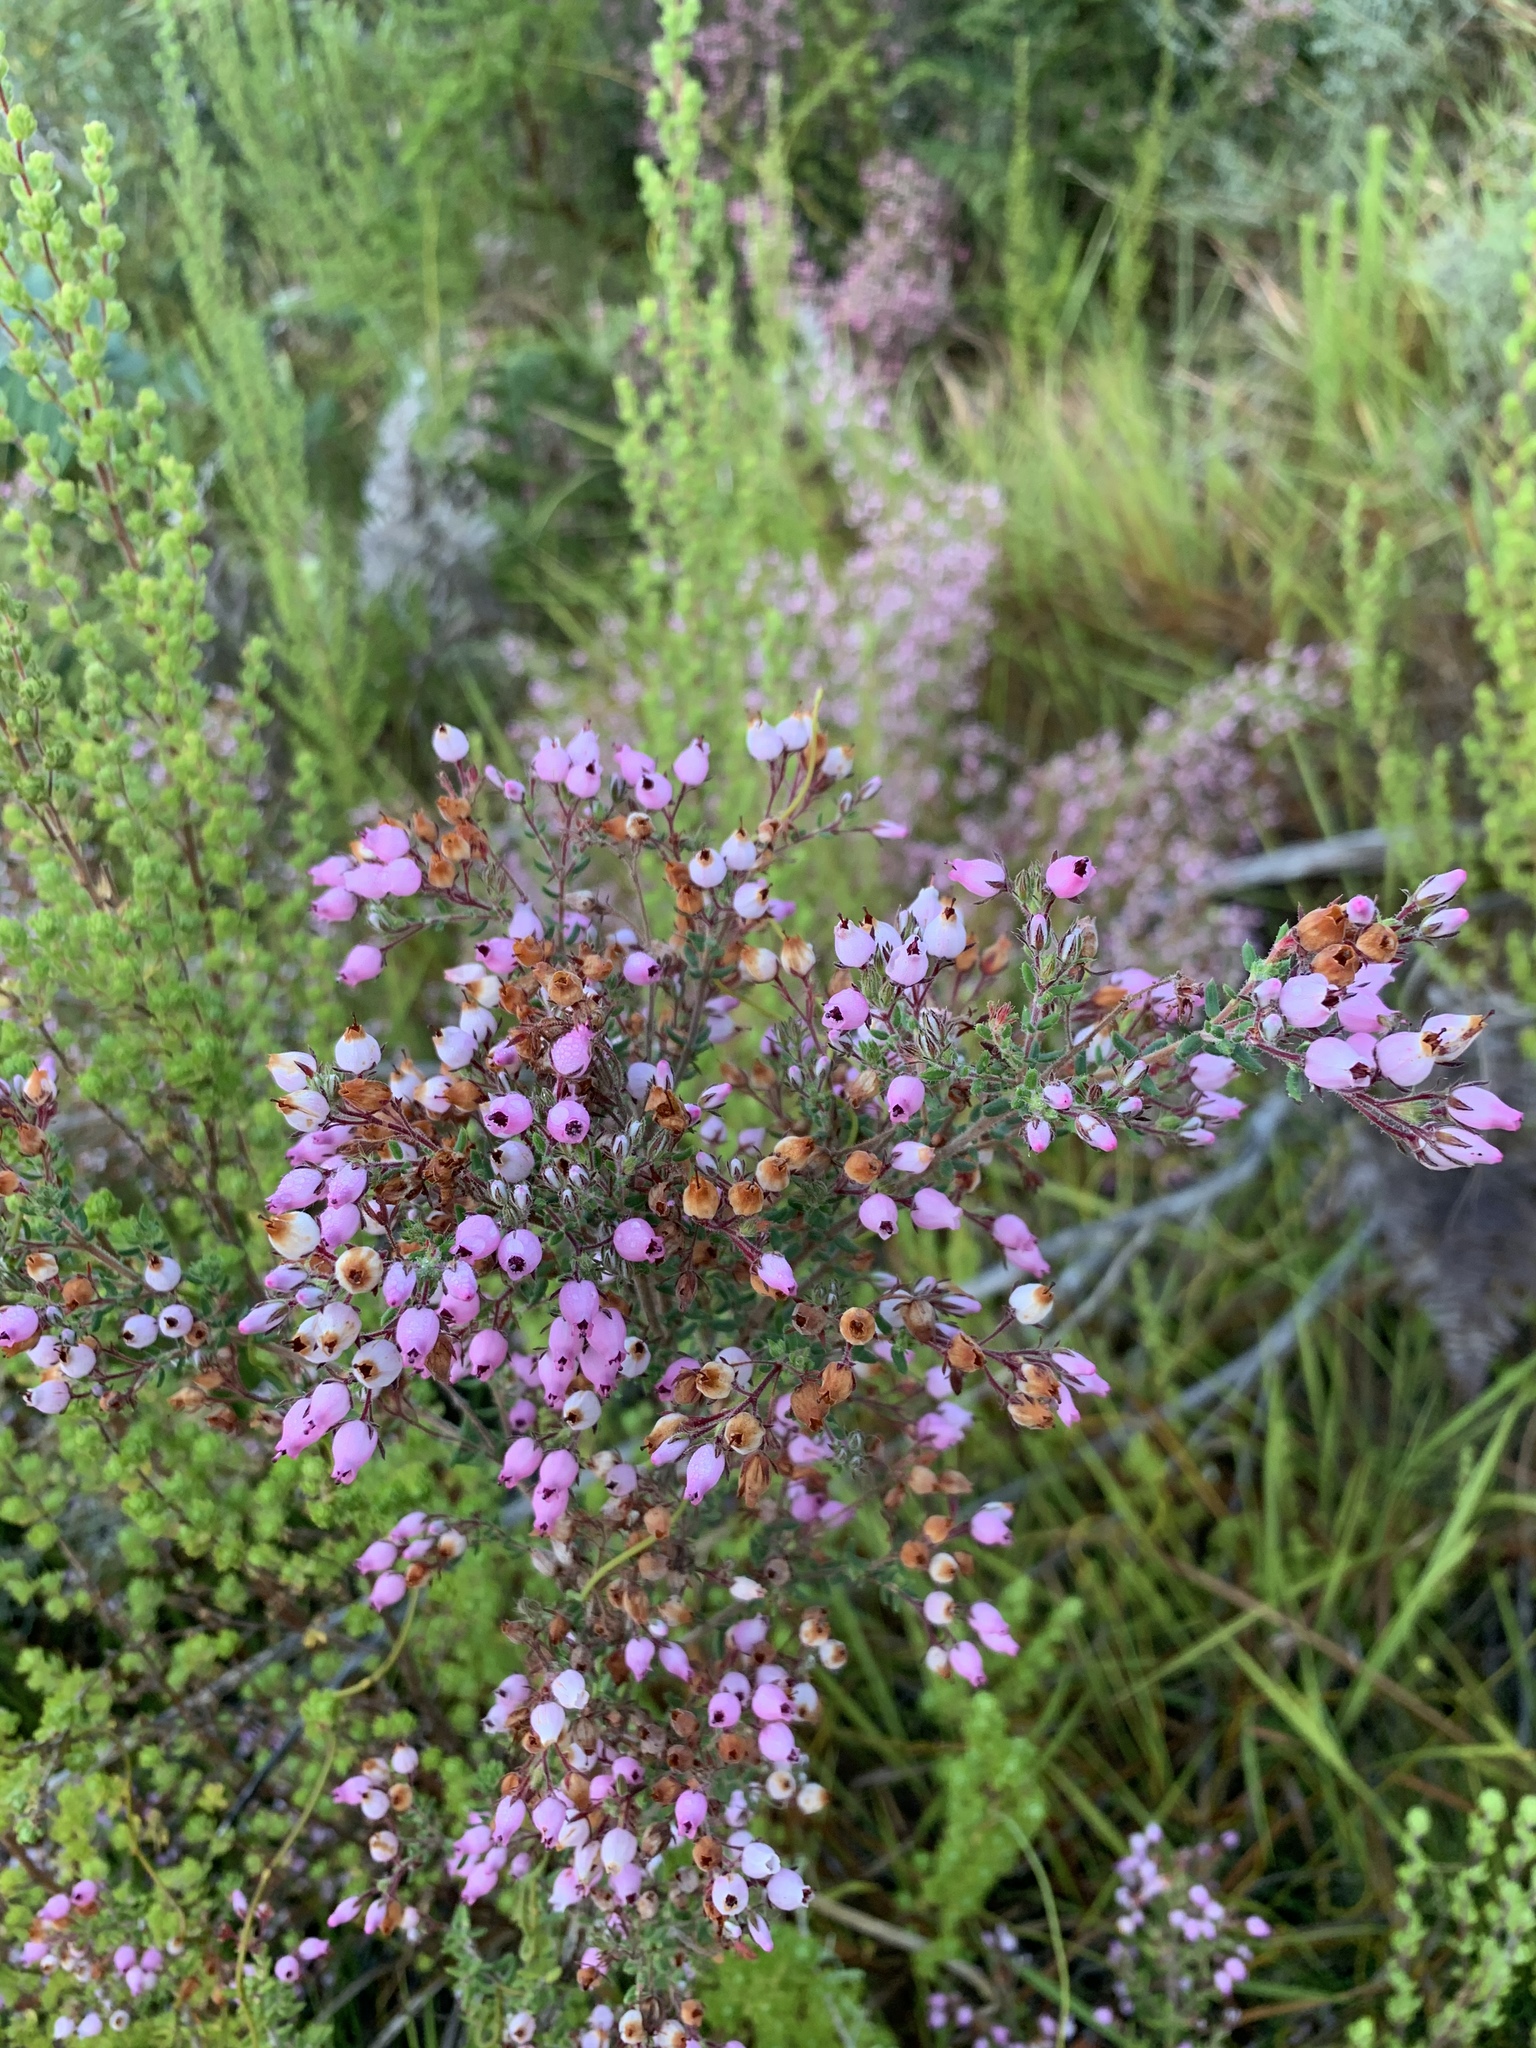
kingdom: Plantae
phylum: Tracheophyta
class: Magnoliopsida
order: Ericales
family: Ericaceae
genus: Erica
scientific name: Erica hirta
